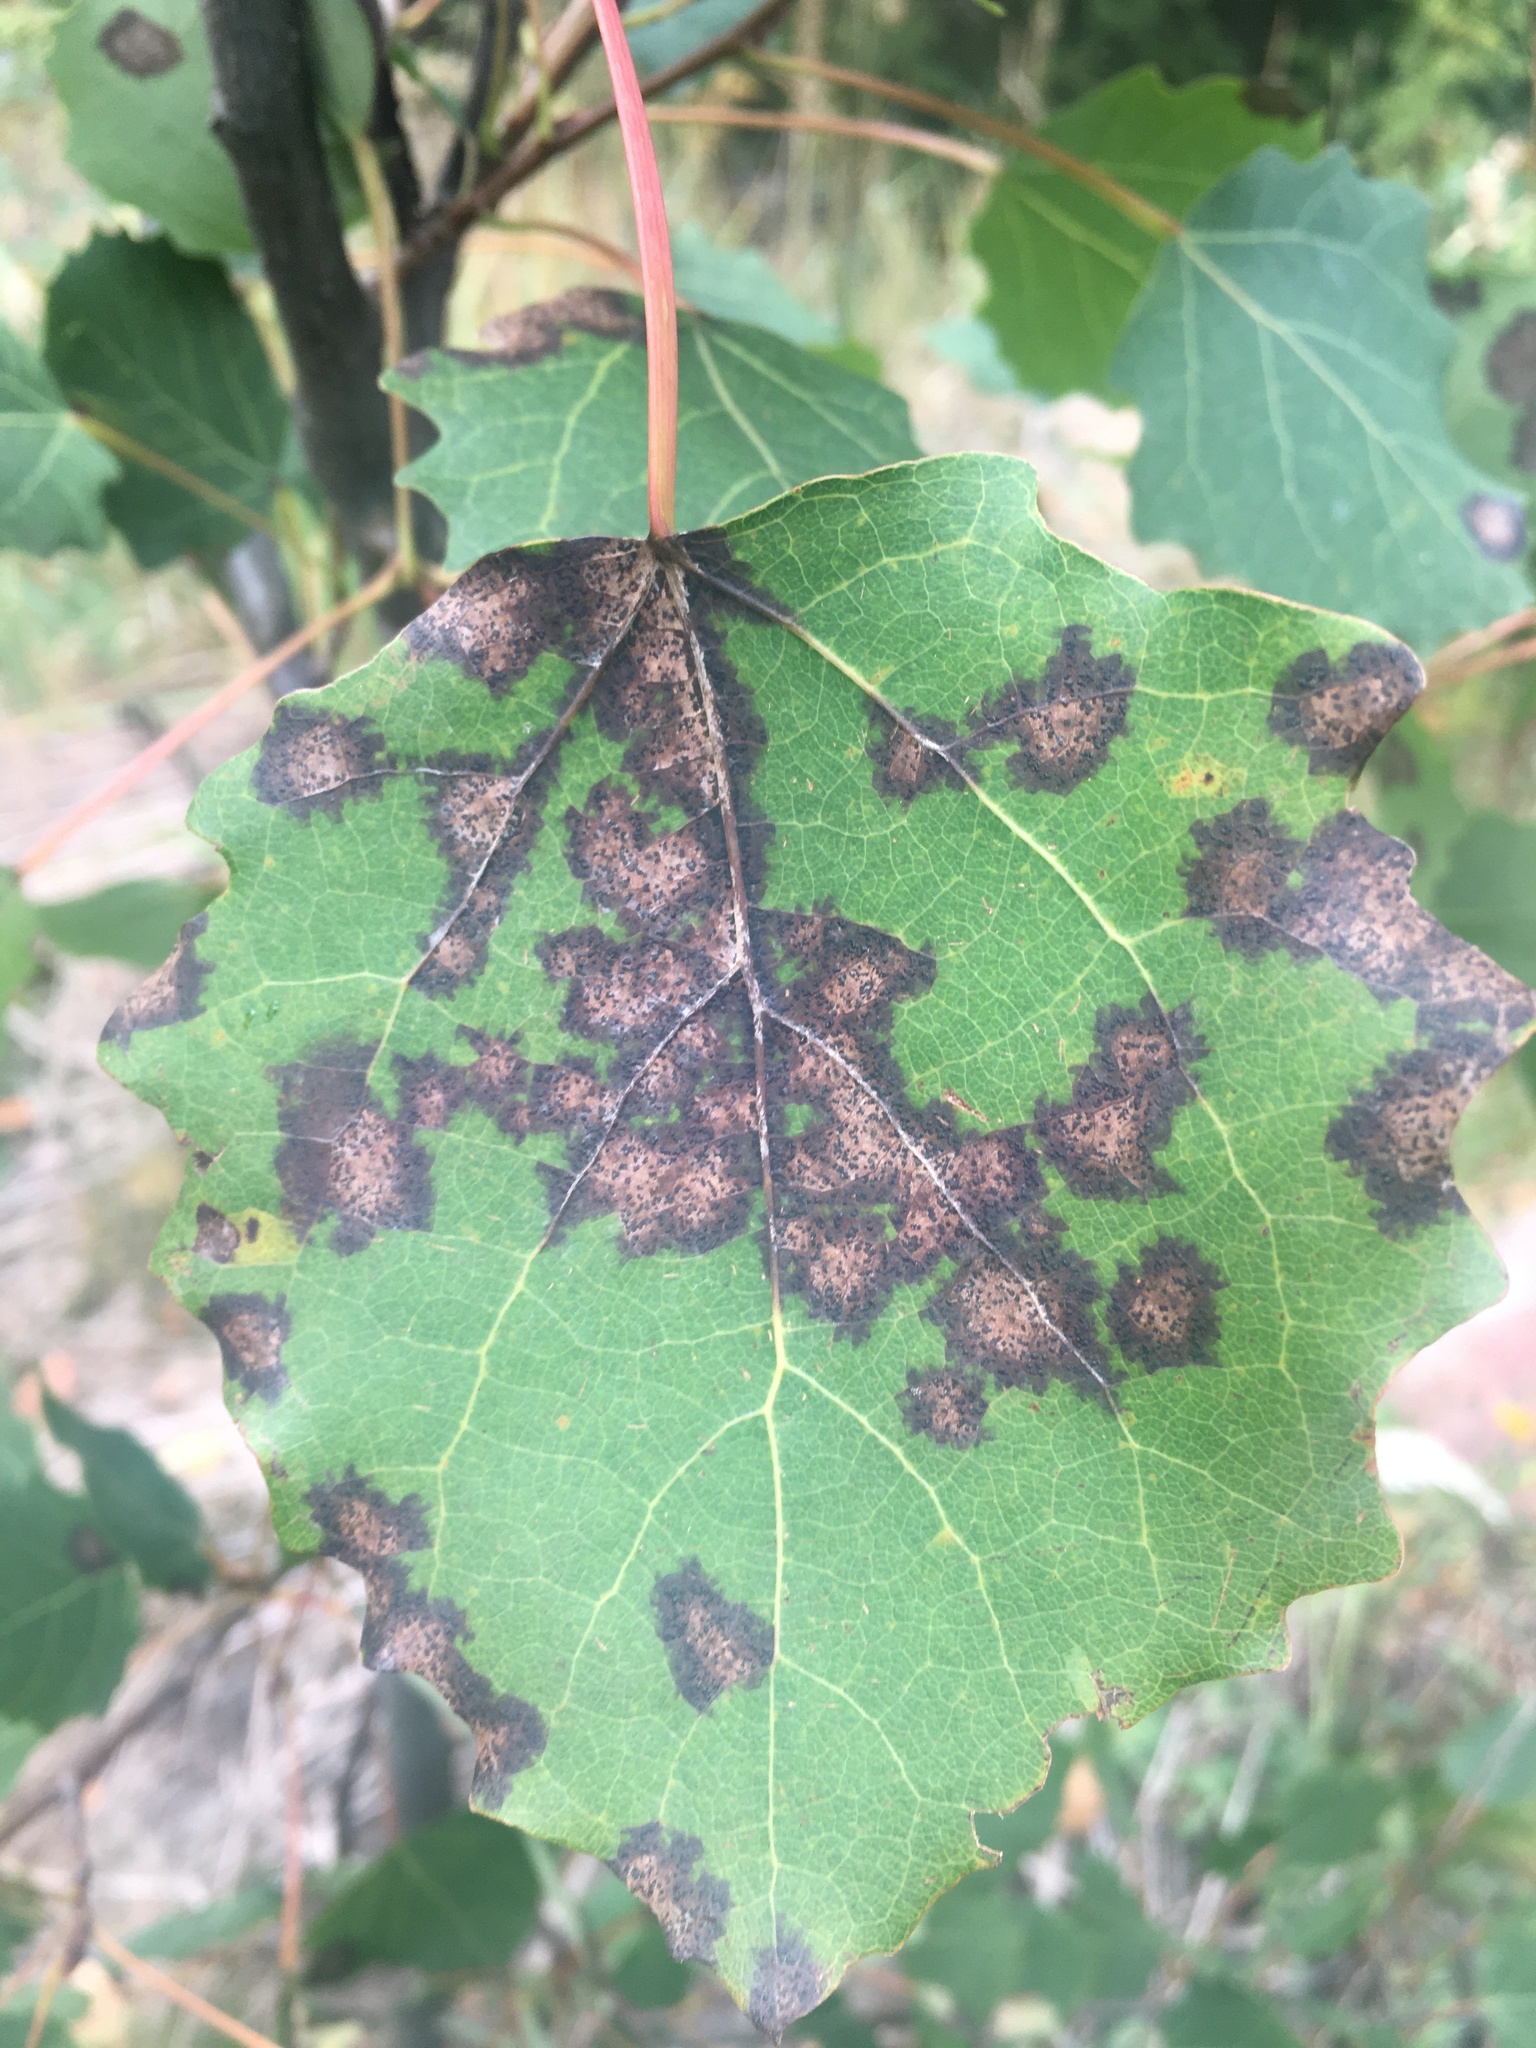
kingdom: Plantae
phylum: Tracheophyta
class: Magnoliopsida
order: Malpighiales
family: Salicaceae
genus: Populus
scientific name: Populus tremula
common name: European aspen
